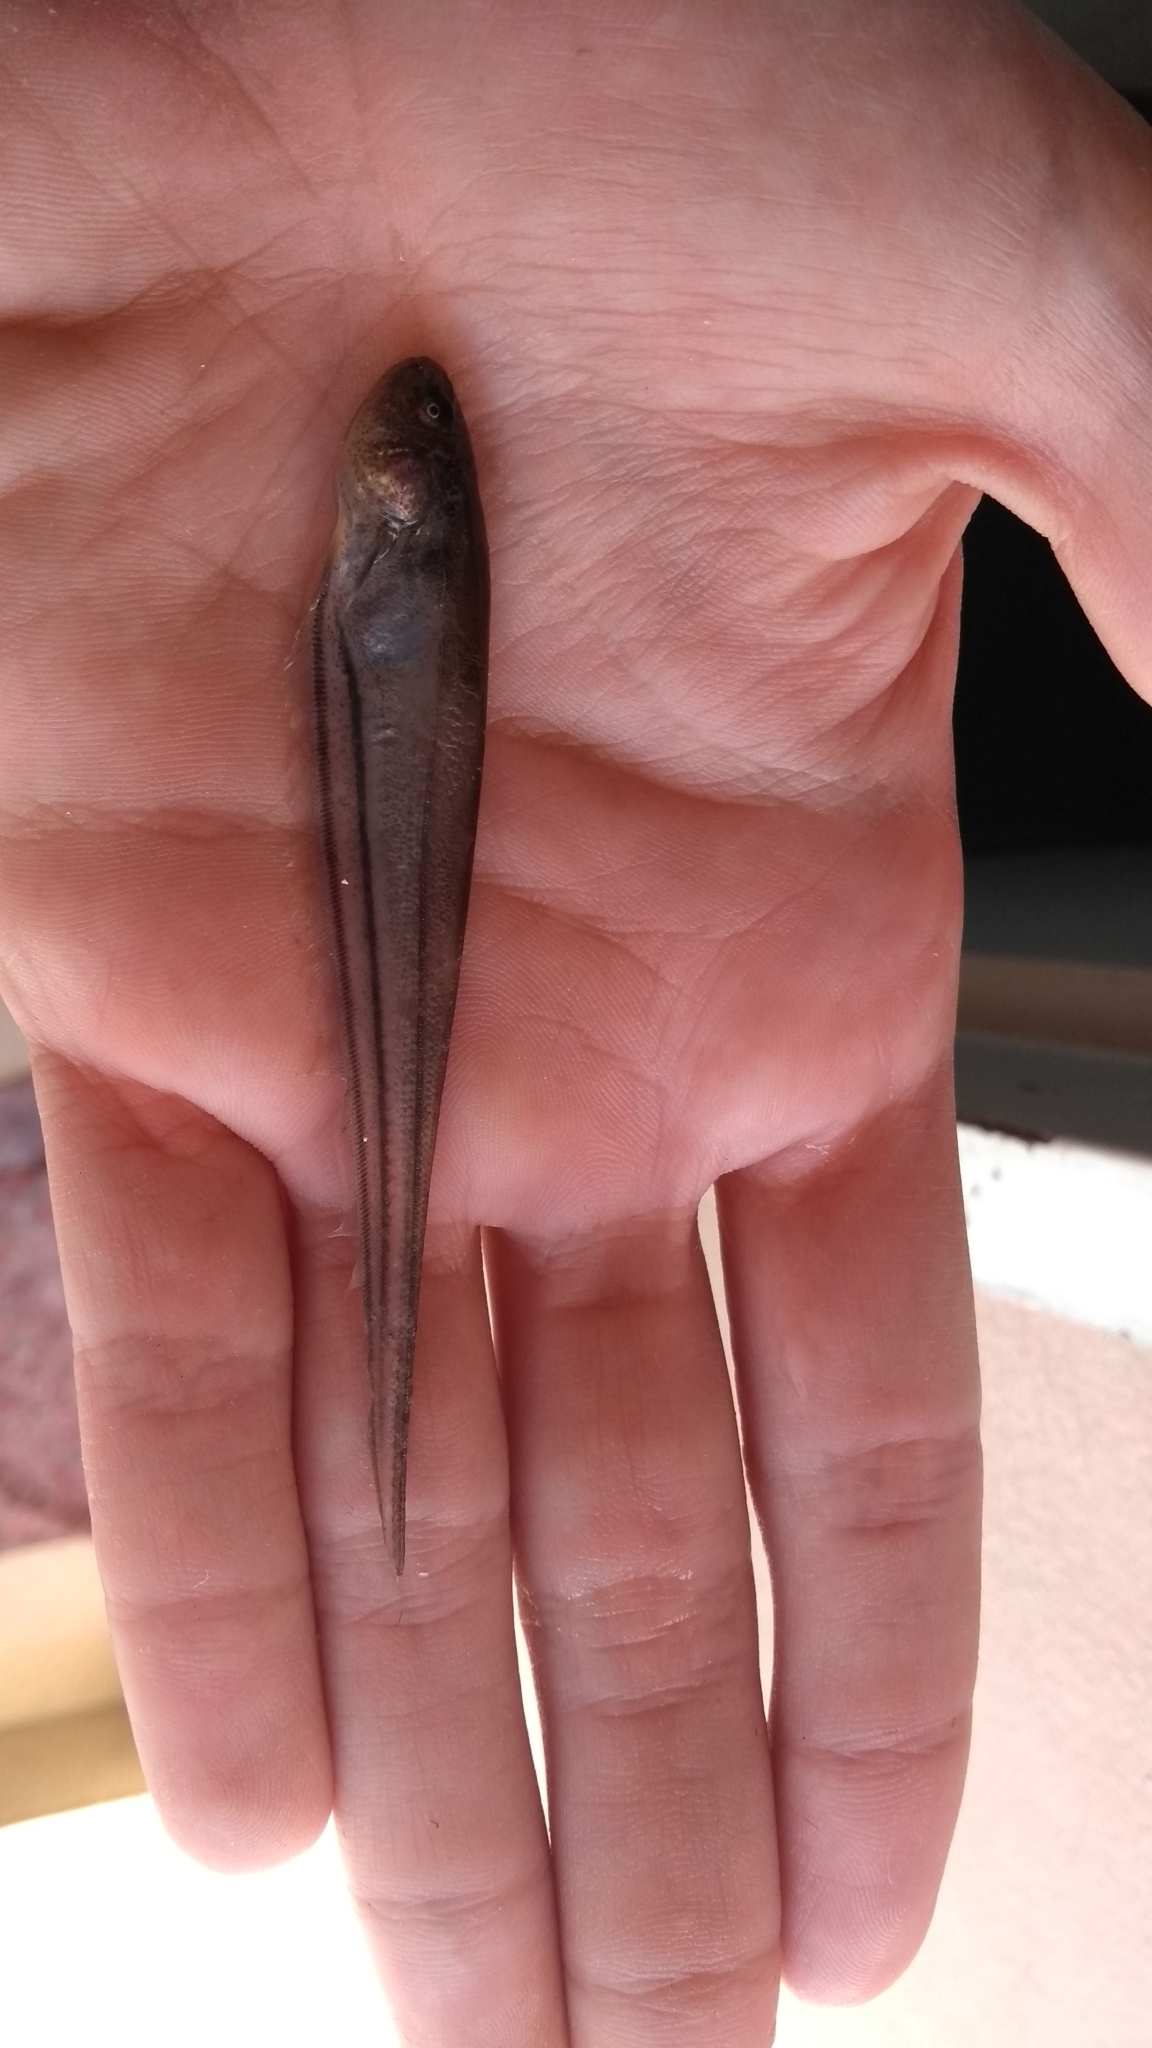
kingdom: Animalia
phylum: Chordata
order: Gymnotiformes
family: Sternopygidae
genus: Eigenmannia
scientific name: Eigenmannia trilineata
